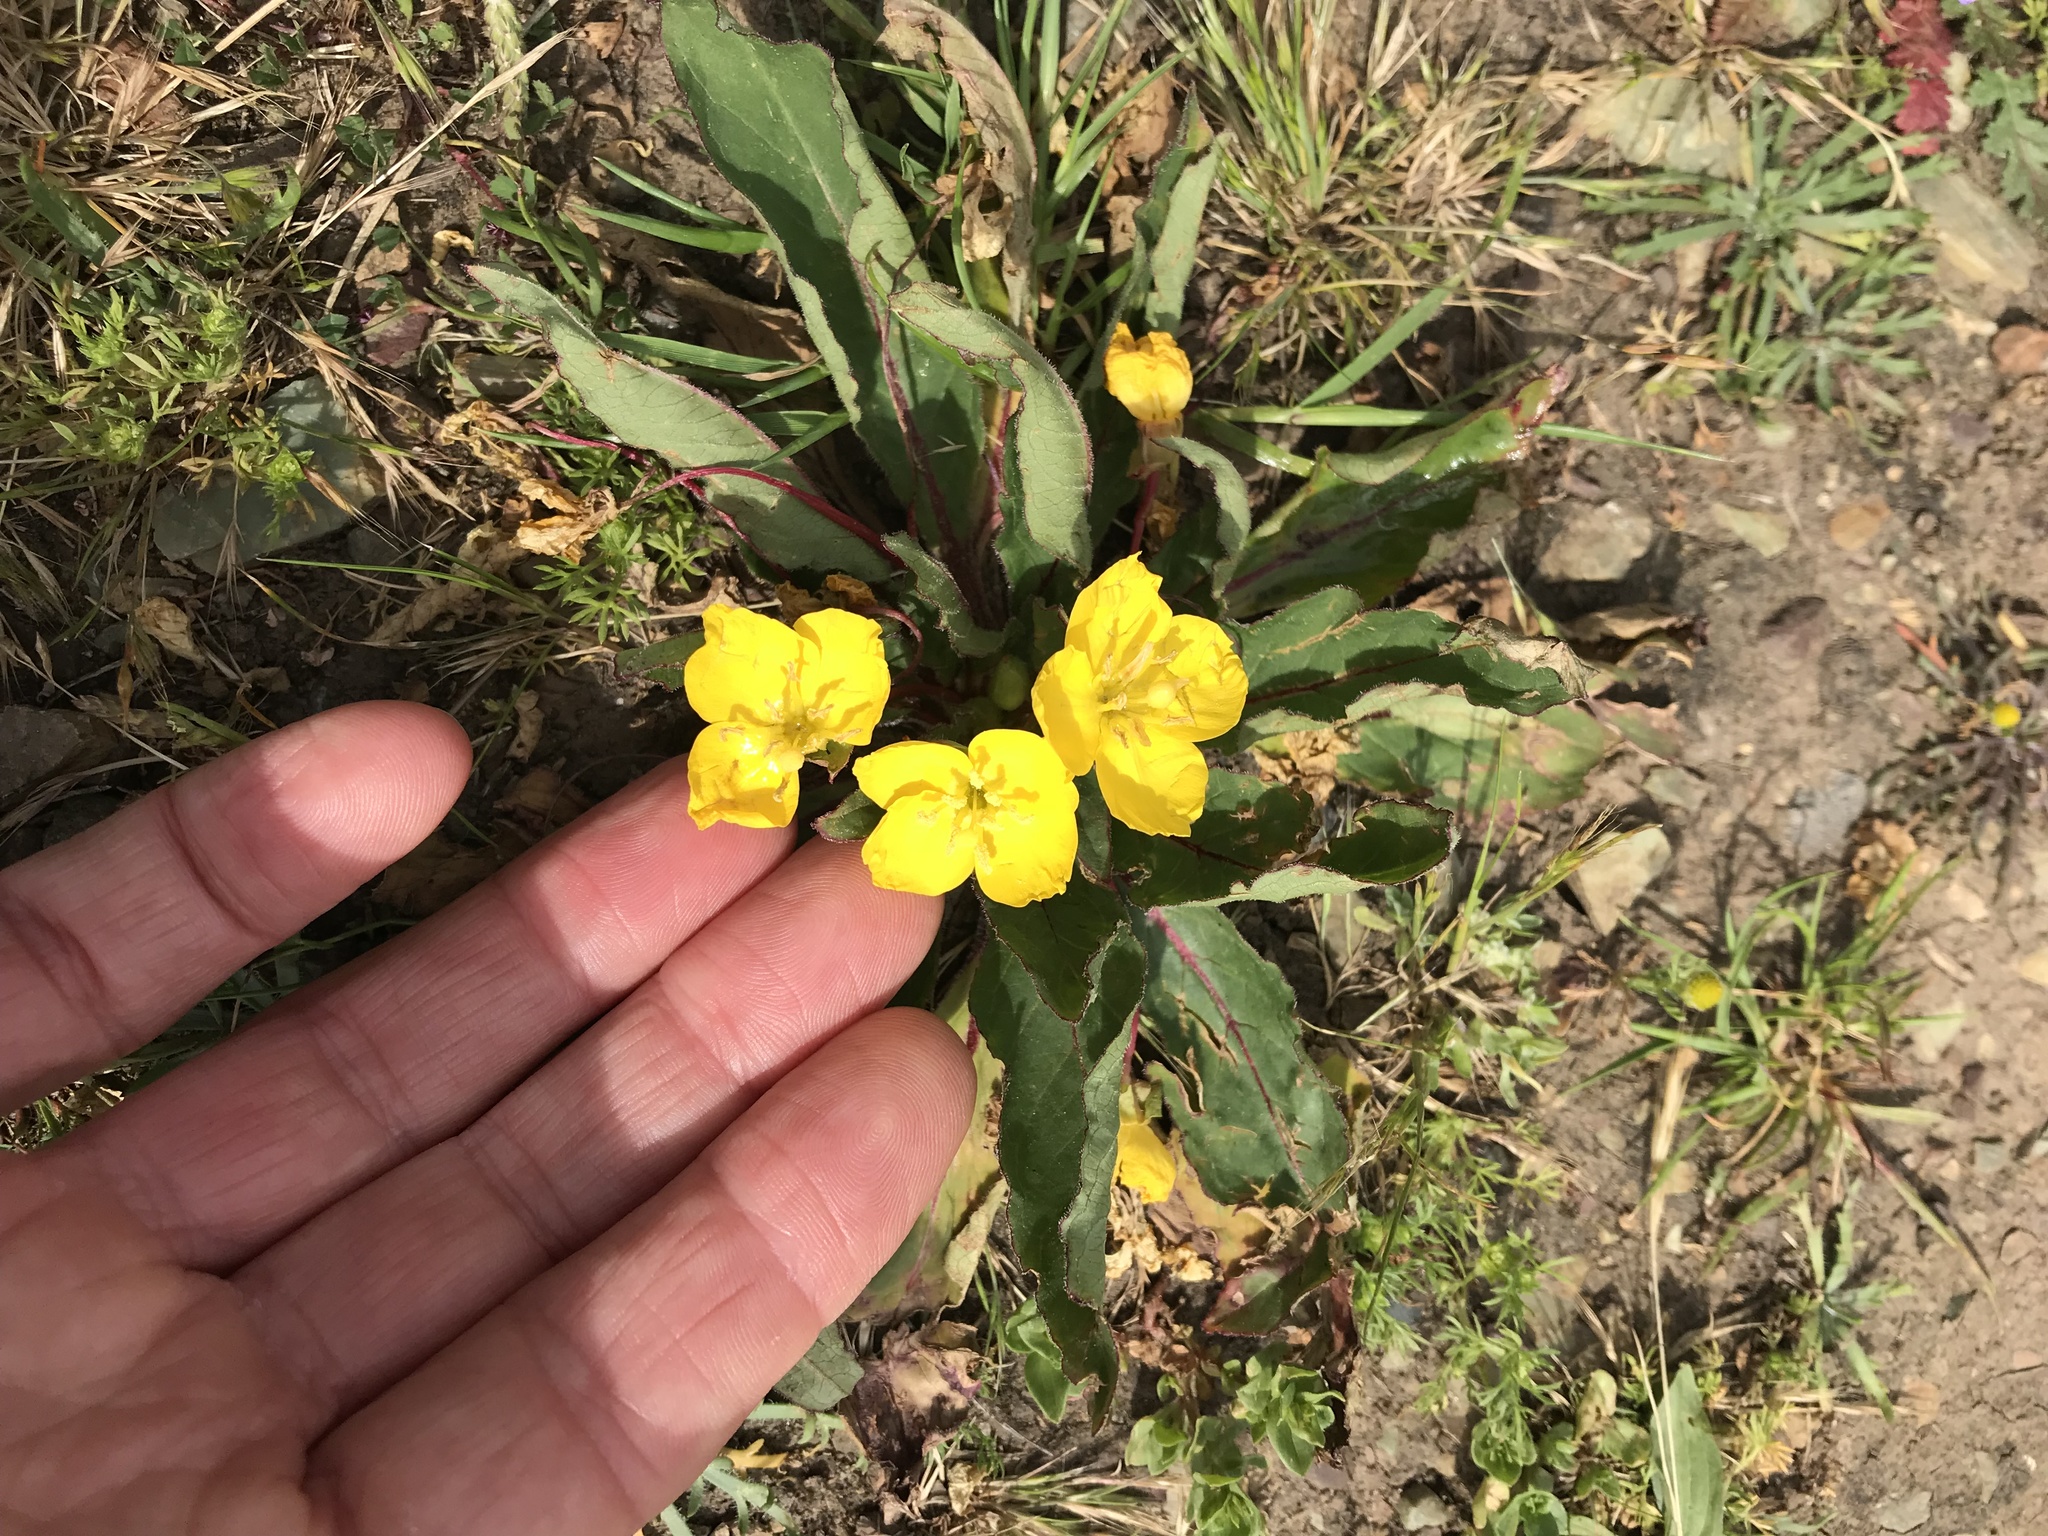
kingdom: Plantae
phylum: Tracheophyta
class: Magnoliopsida
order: Myrtales
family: Onagraceae
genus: Taraxia
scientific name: Taraxia ovata
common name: Goldeneggs
